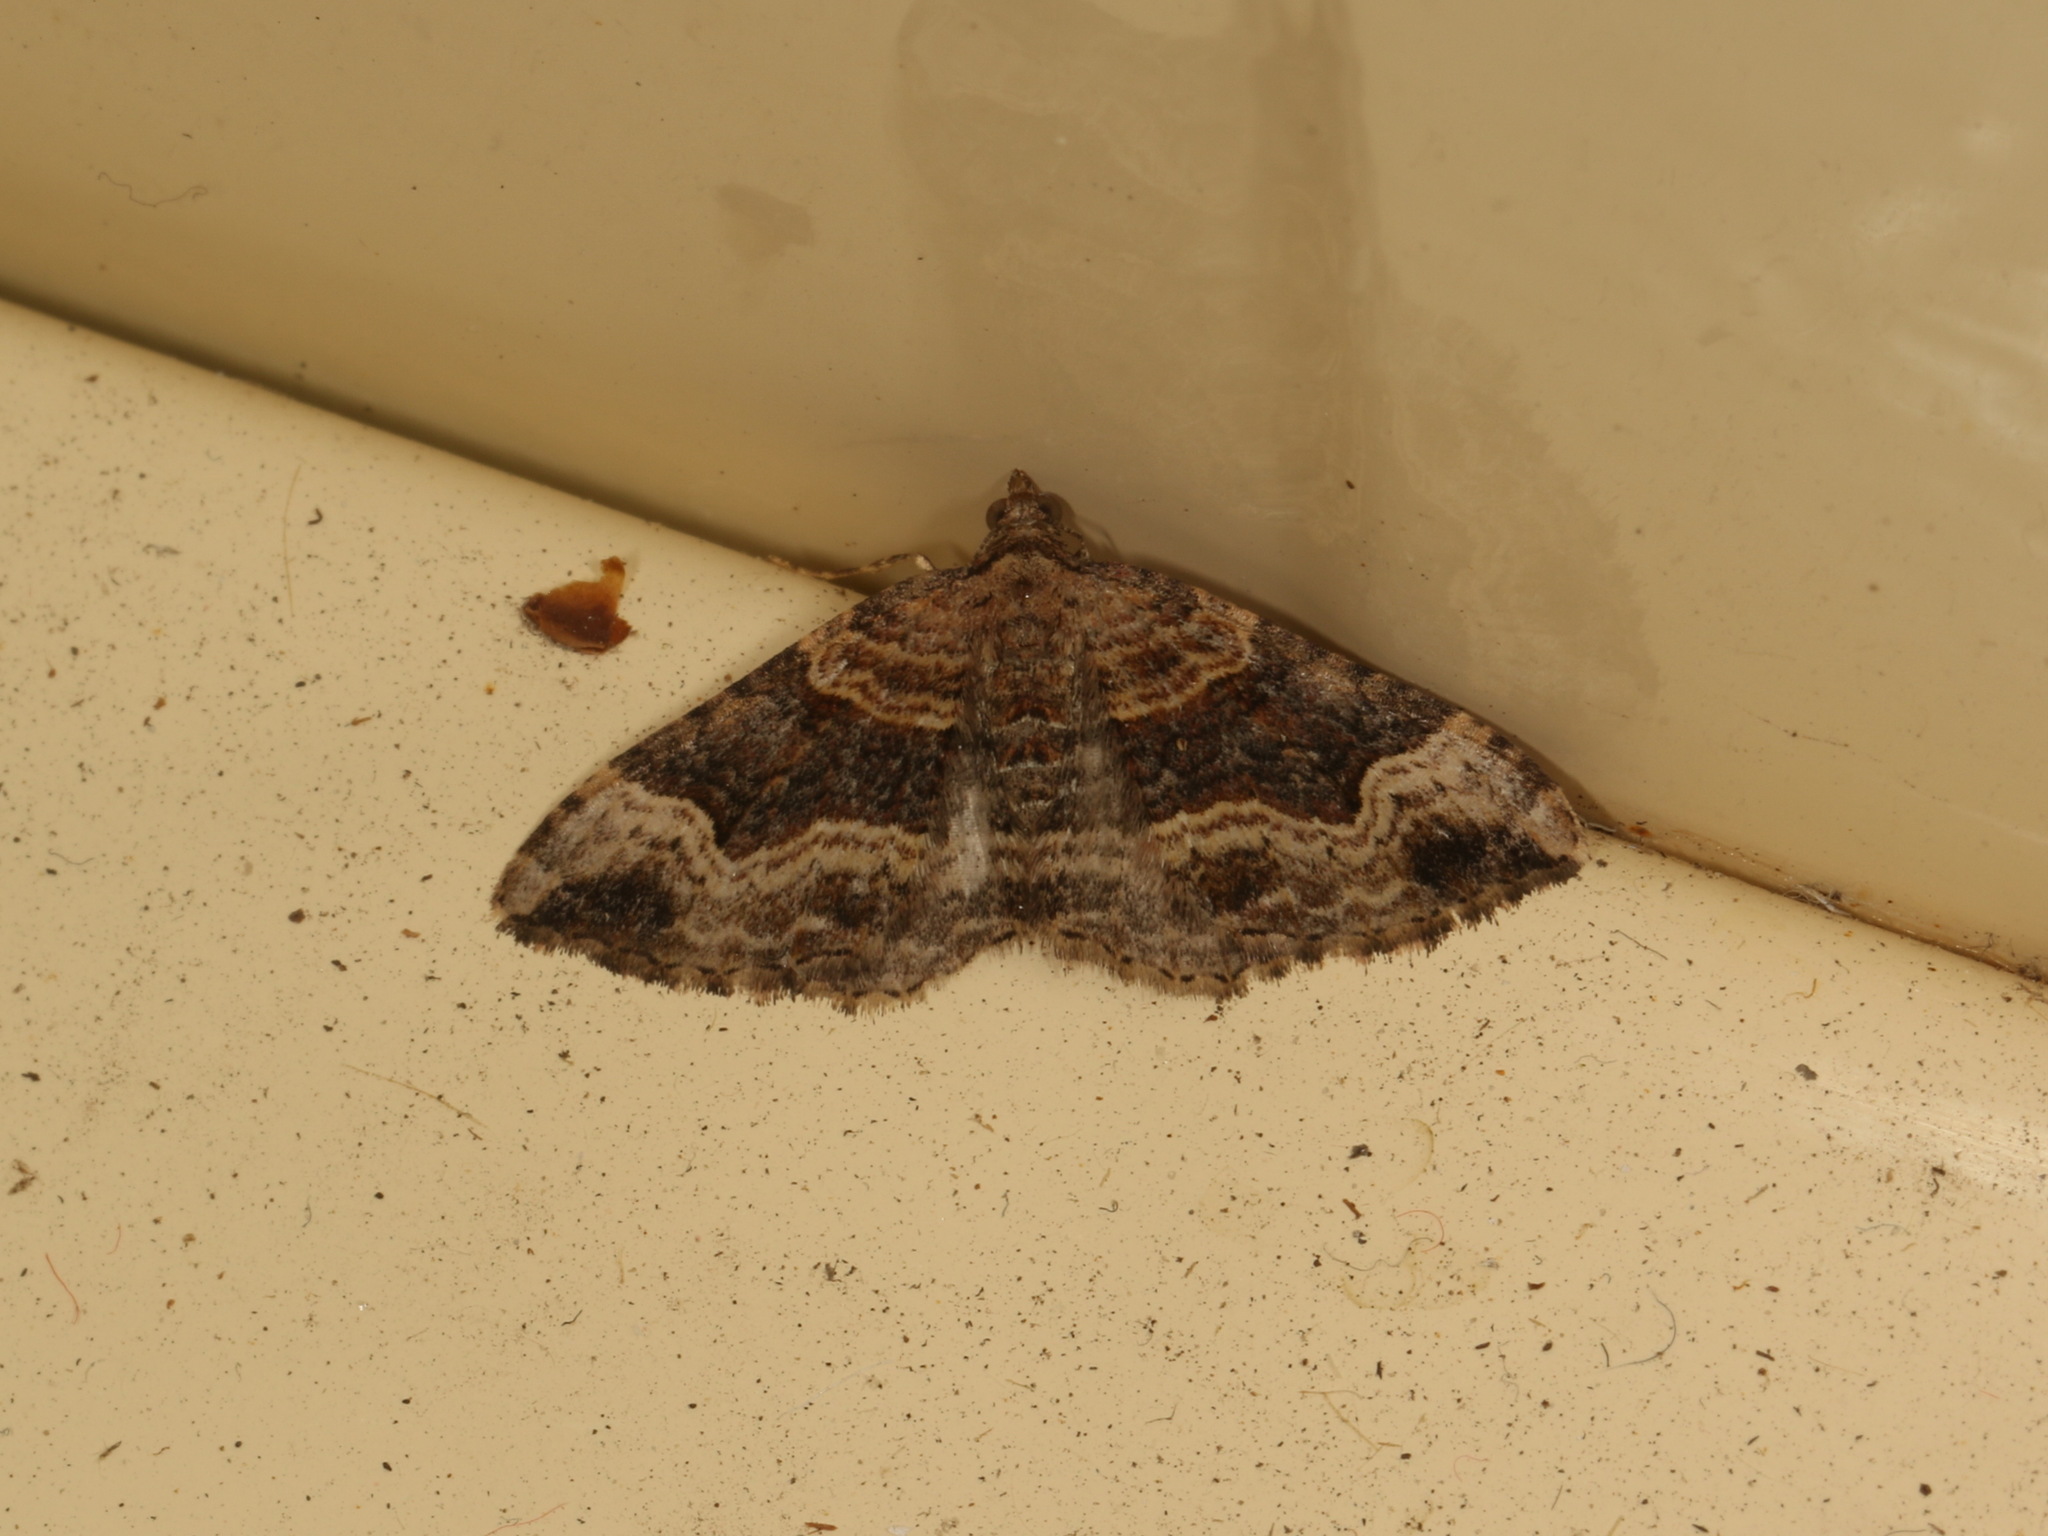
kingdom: Animalia
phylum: Arthropoda
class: Insecta
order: Lepidoptera
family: Geometridae
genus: Epyaxa
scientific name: Epyaxa subidaria
